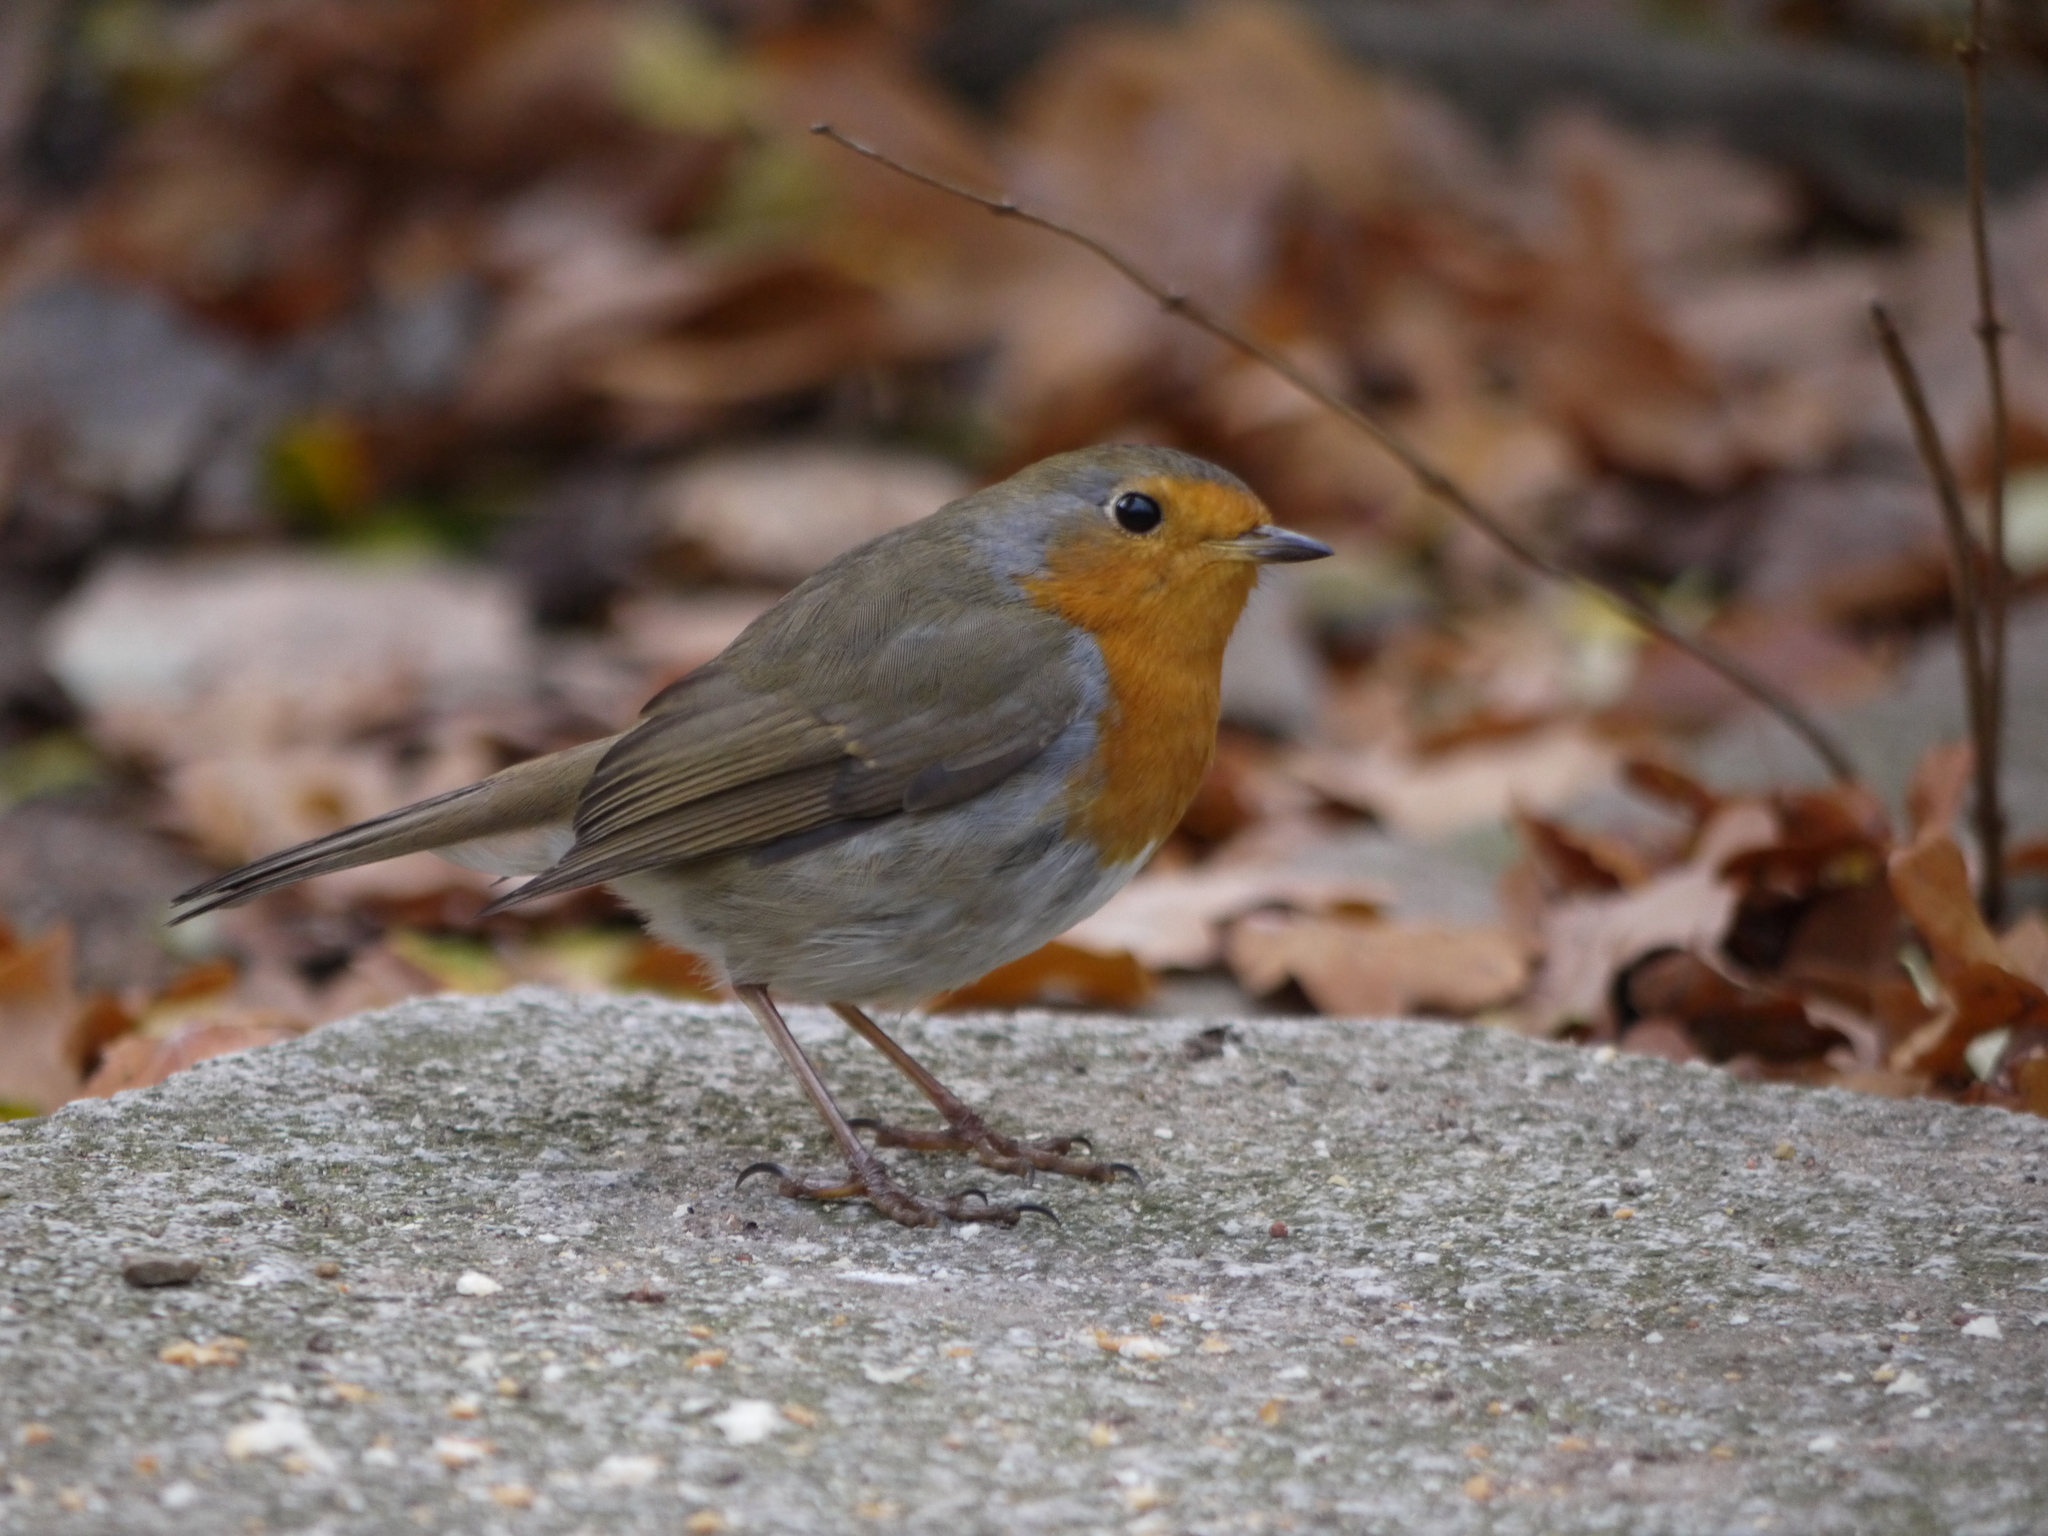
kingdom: Animalia
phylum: Chordata
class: Aves
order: Passeriformes
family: Muscicapidae
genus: Erithacus
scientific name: Erithacus rubecula
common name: European robin
